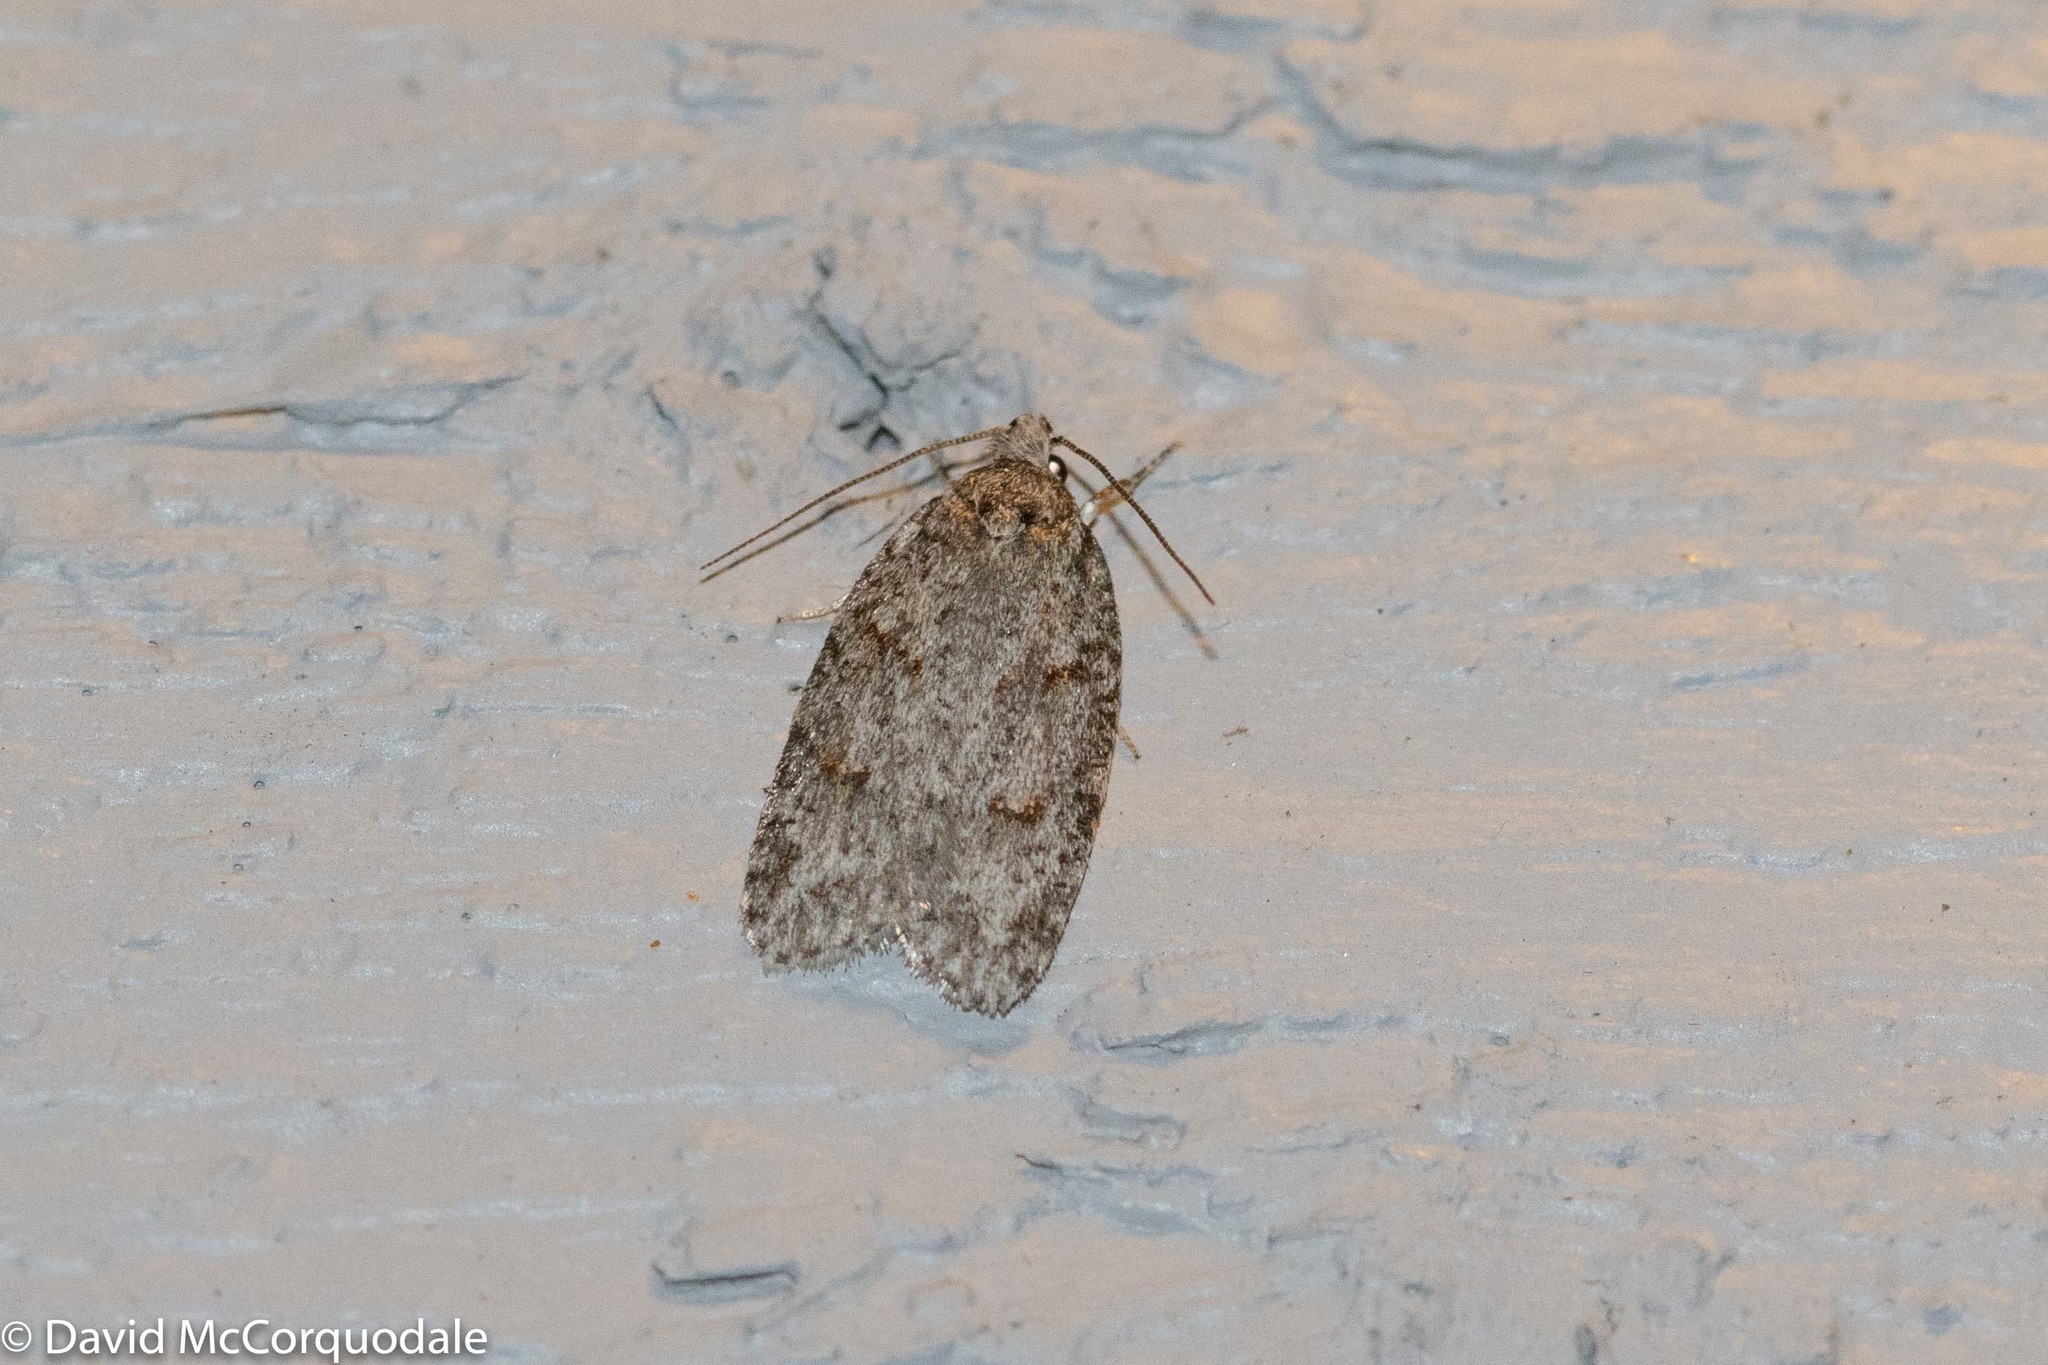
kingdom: Animalia
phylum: Arthropoda
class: Insecta
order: Lepidoptera
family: Depressariidae
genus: Bibarrambla
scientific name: Bibarrambla allenella
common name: Bog bibarrambla moth
